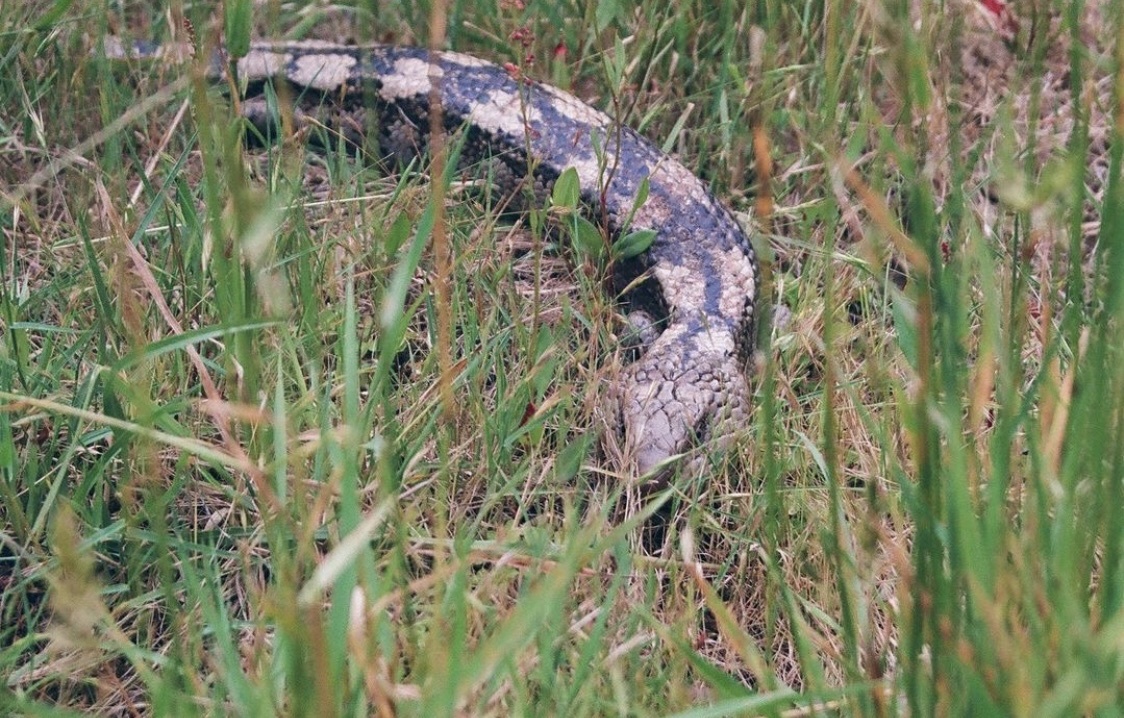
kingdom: Animalia
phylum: Chordata
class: Squamata
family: Scincidae
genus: Tiliqua
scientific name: Tiliqua nigrolutea
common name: Blotched blue-tongued lizard
